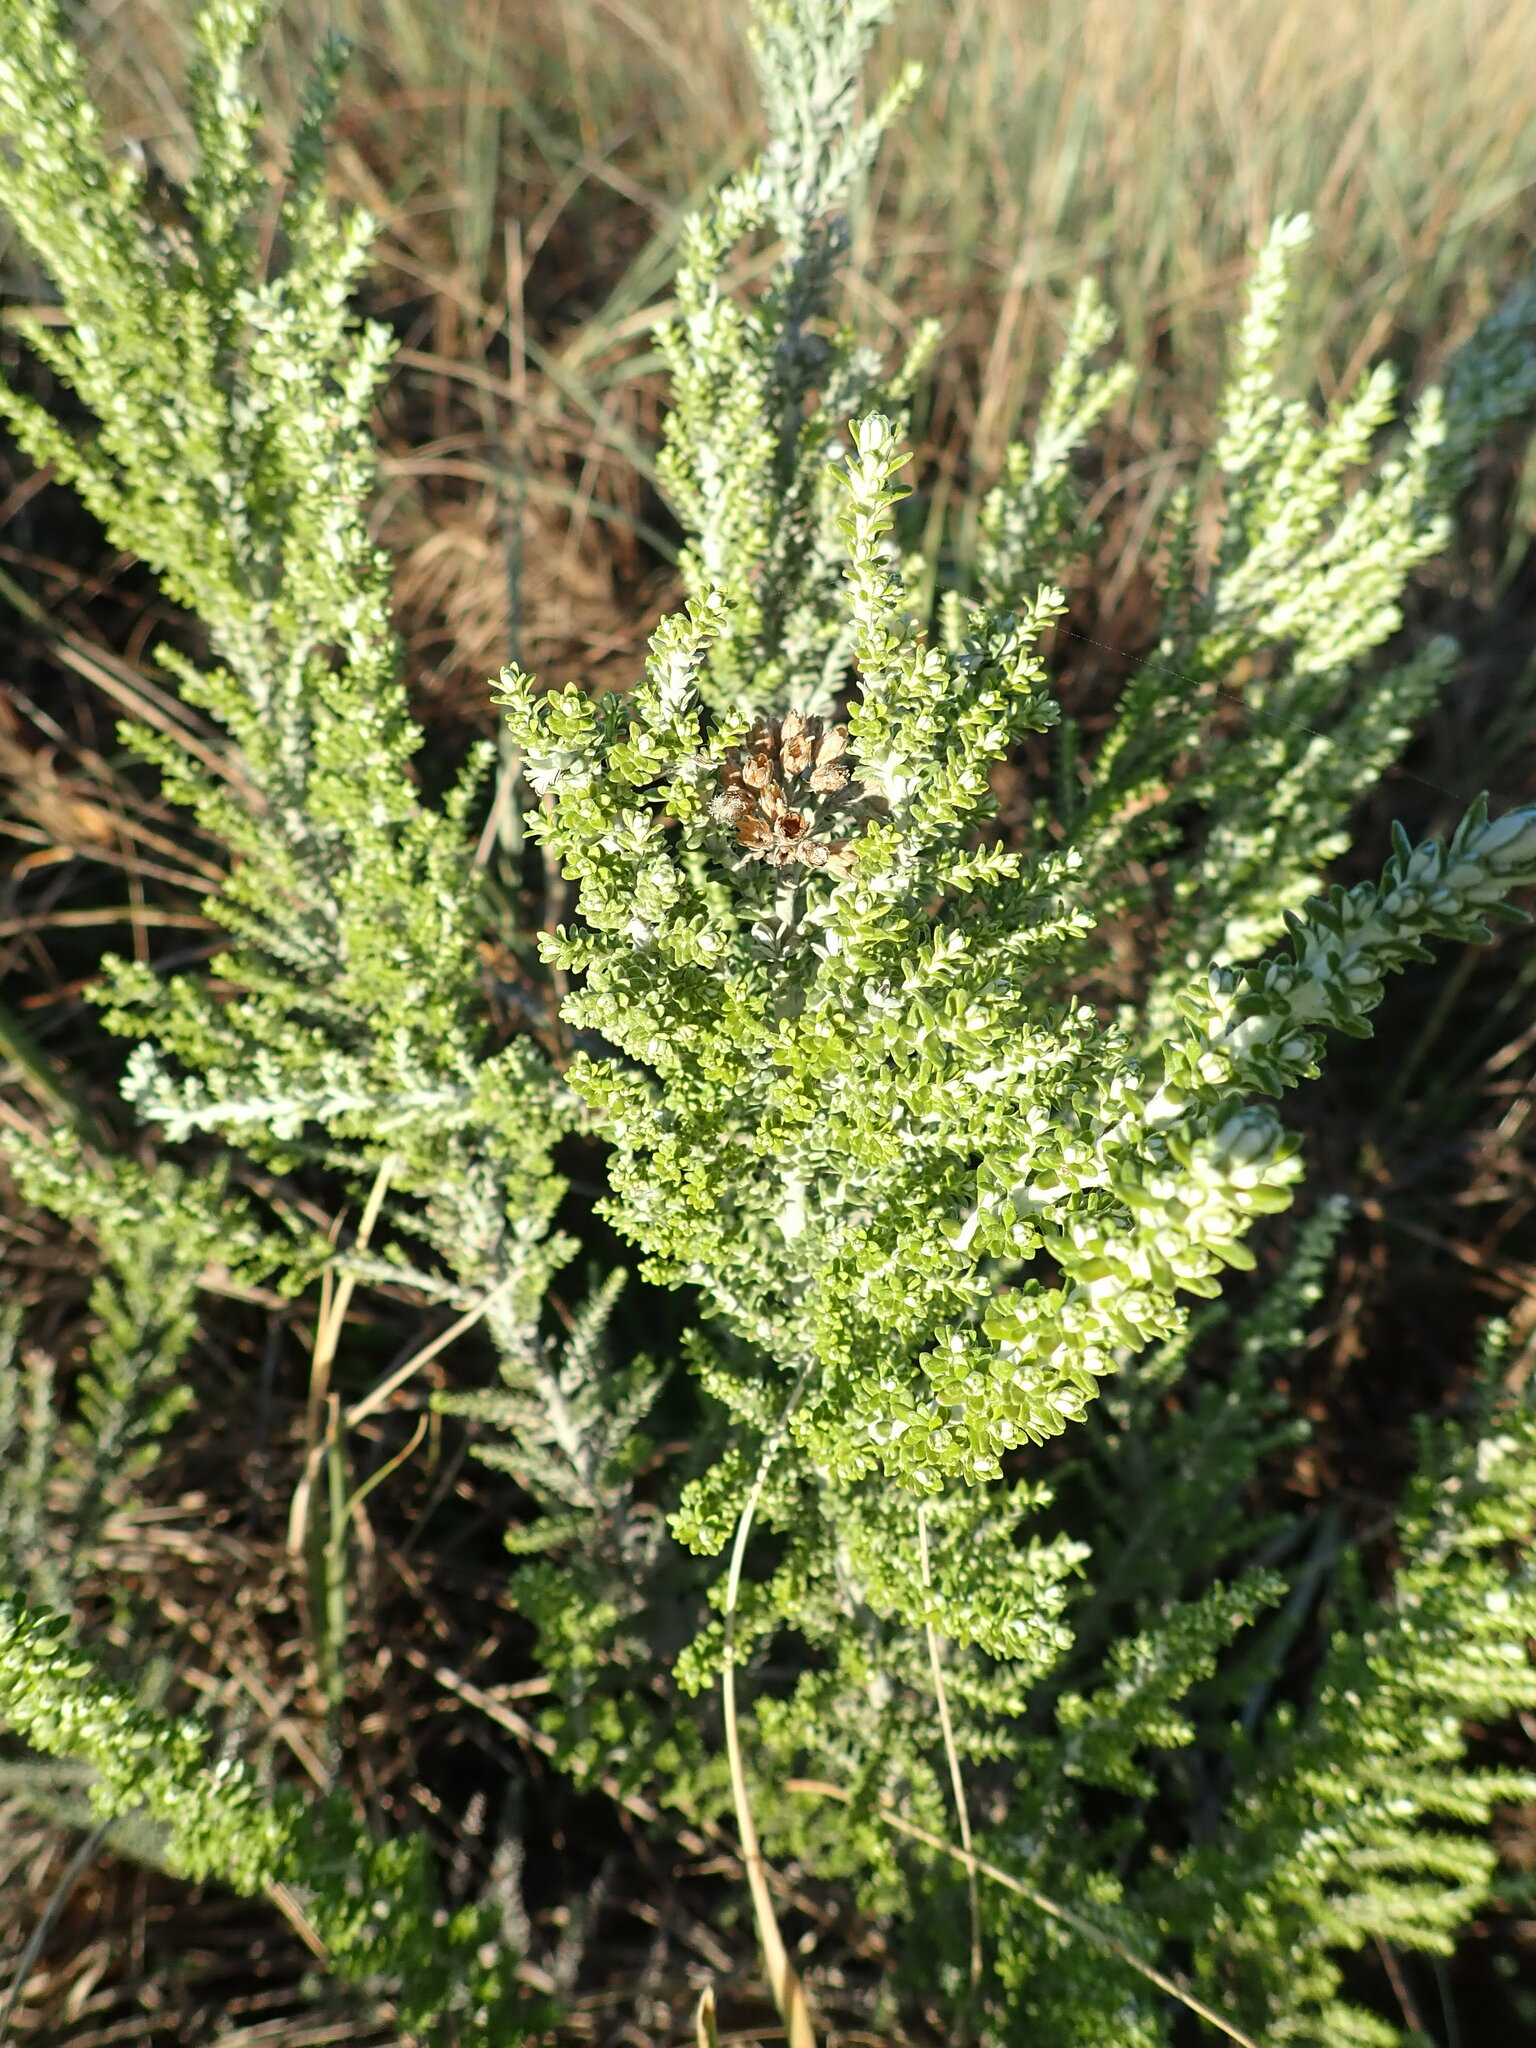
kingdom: Plantae
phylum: Tracheophyta
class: Magnoliopsida
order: Asterales
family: Asteraceae
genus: Ozothamnus
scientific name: Ozothamnus leptophyllus
